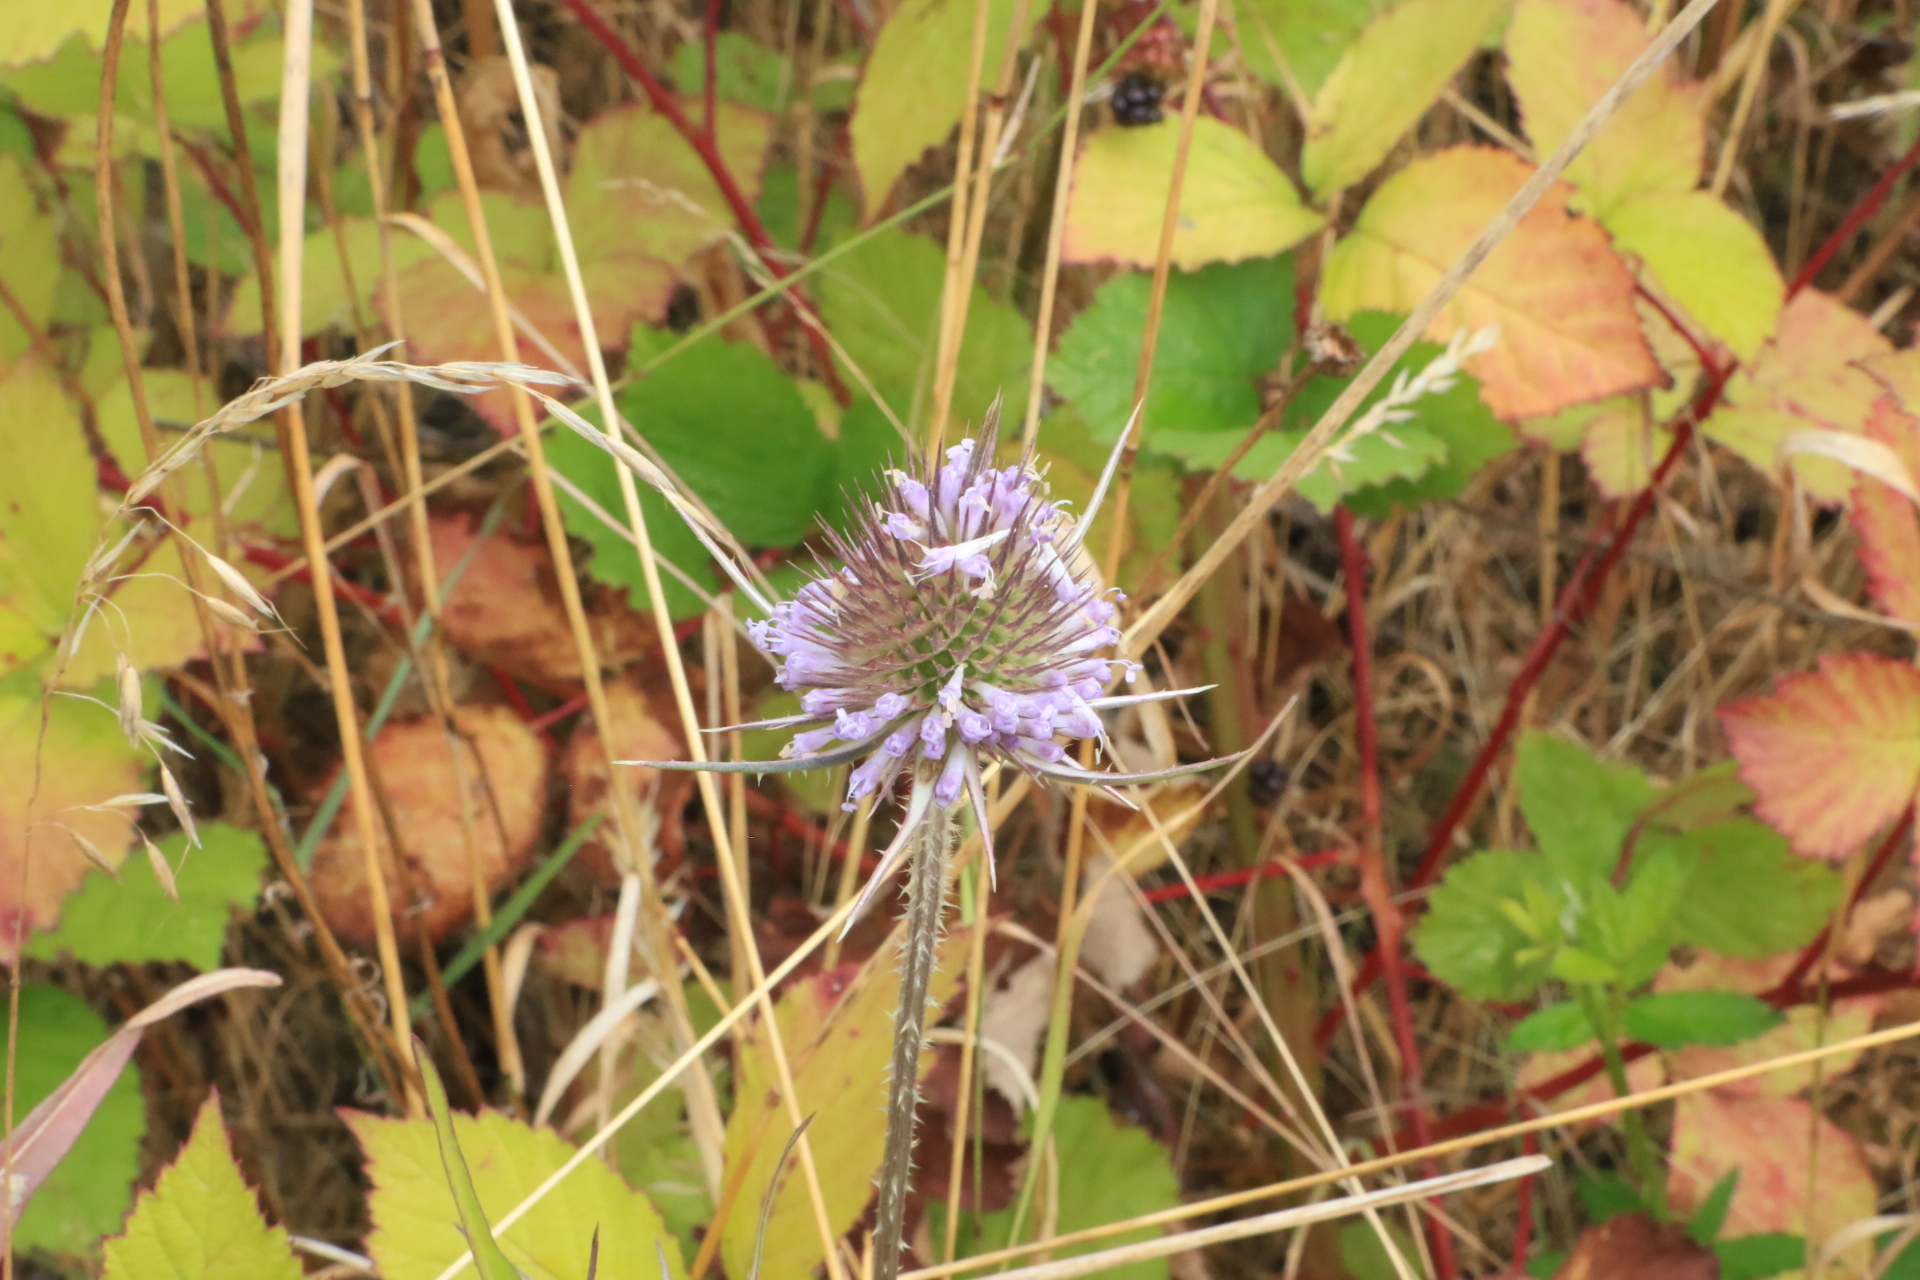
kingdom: Plantae
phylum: Tracheophyta
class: Magnoliopsida
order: Dipsacales
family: Caprifoliaceae
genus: Dipsacus
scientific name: Dipsacus fullonum
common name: Teasel
